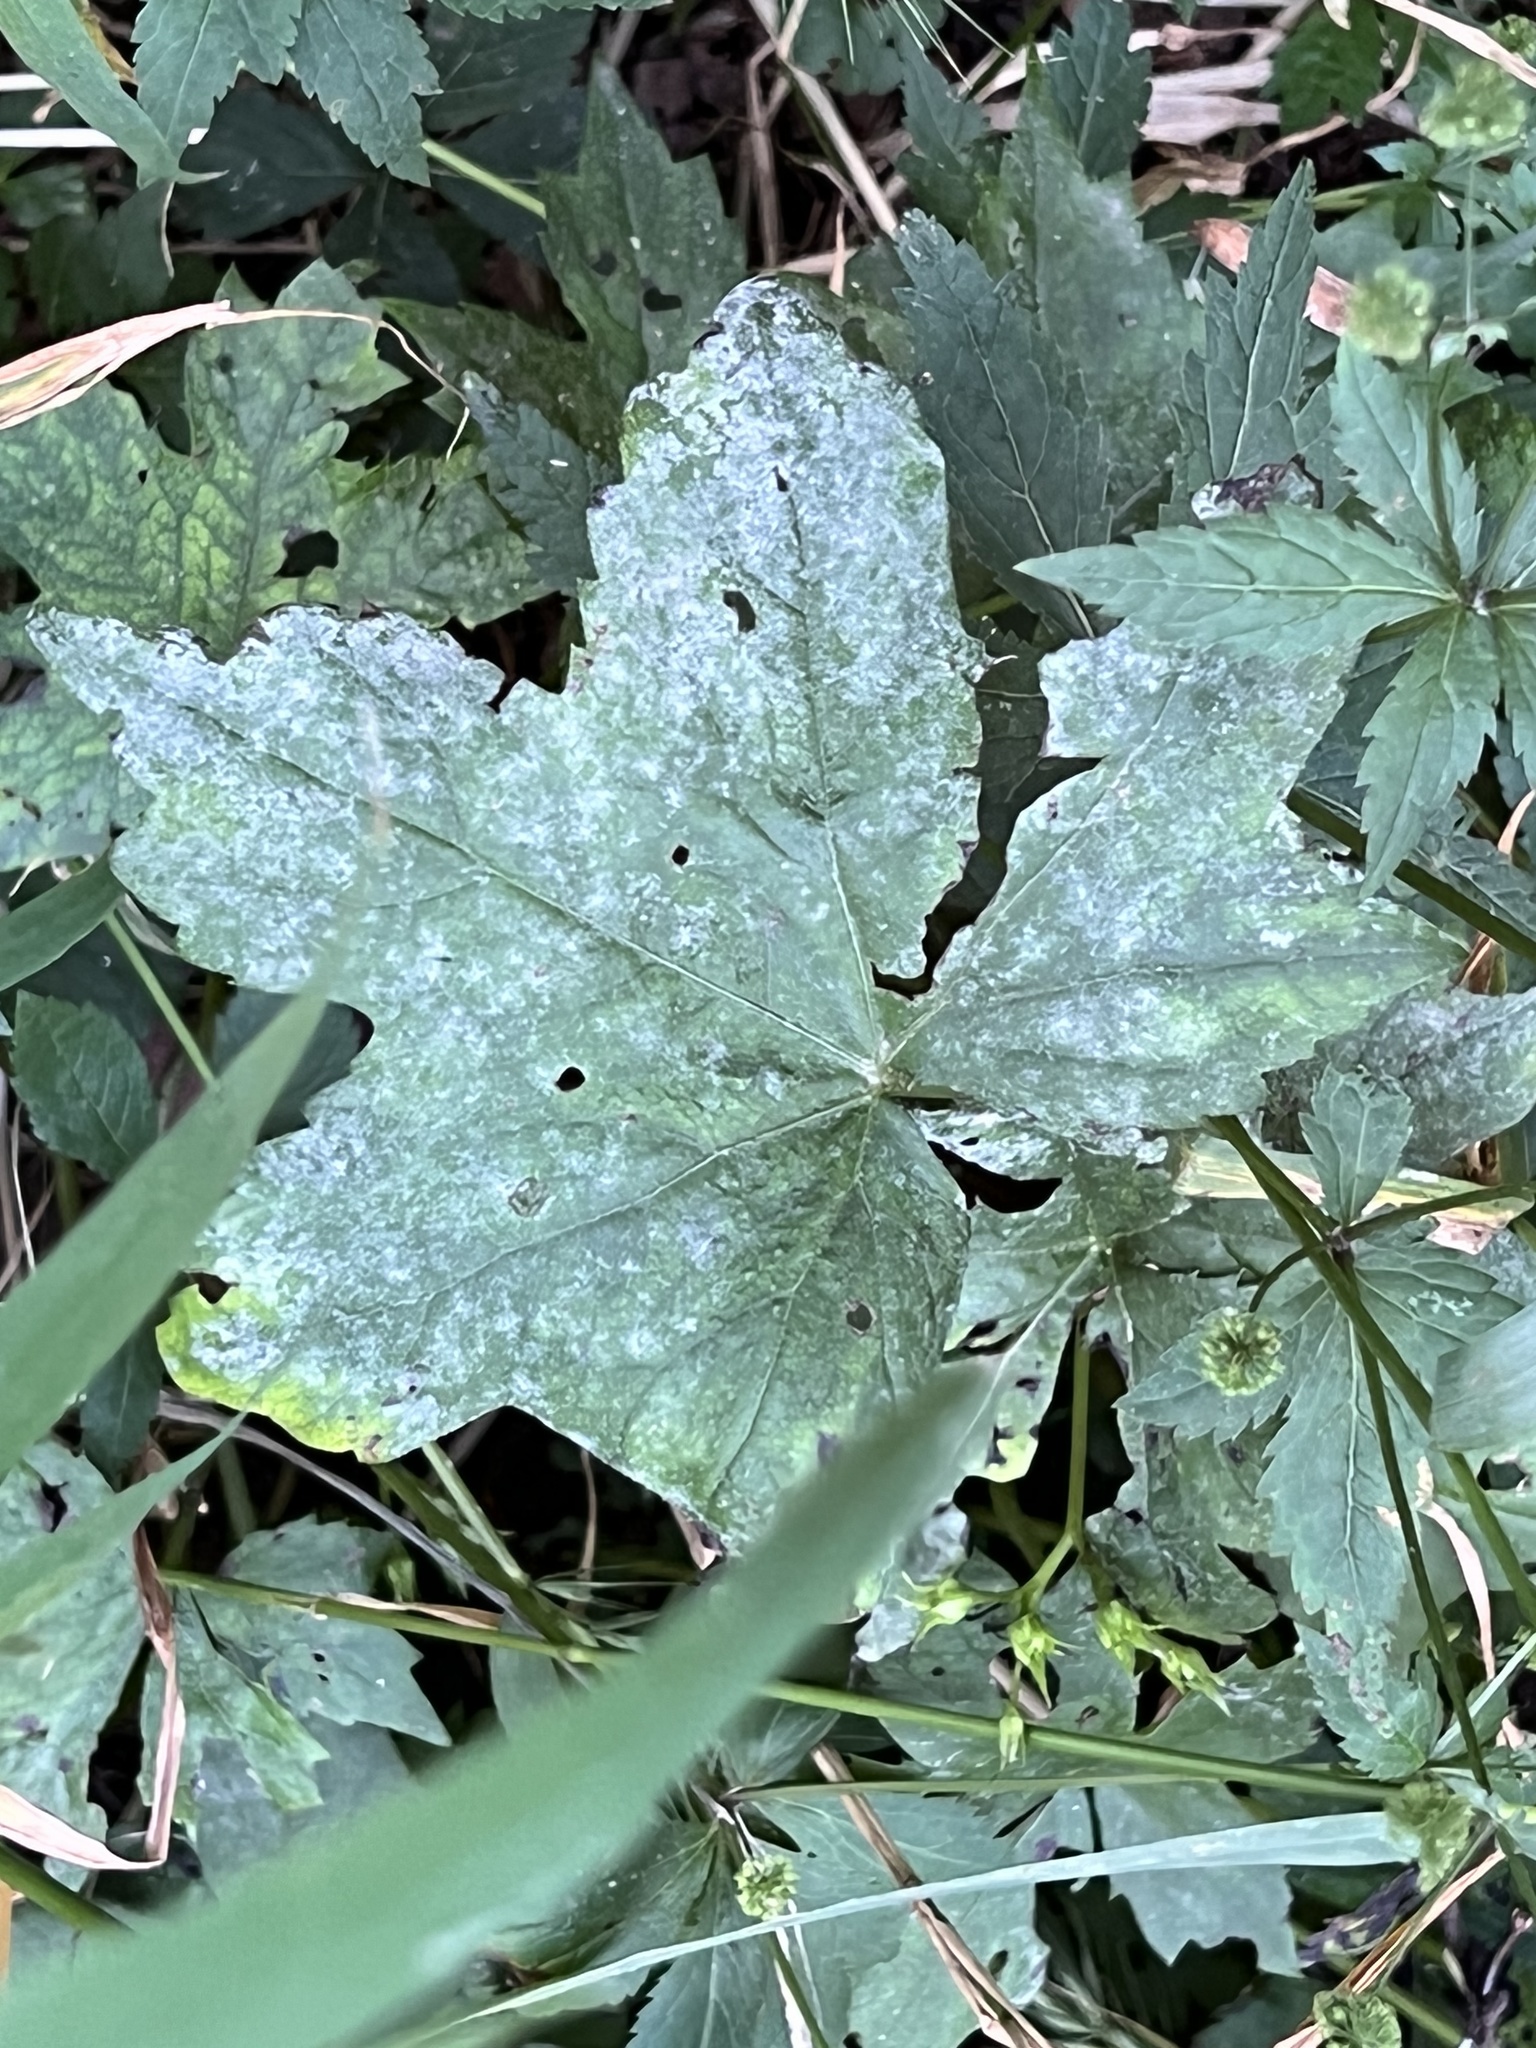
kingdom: Fungi
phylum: Ascomycota
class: Leotiomycetes
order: Helotiales
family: Erysiphaceae
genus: Golovinomyces
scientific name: Golovinomyces hydrophyllacearum
